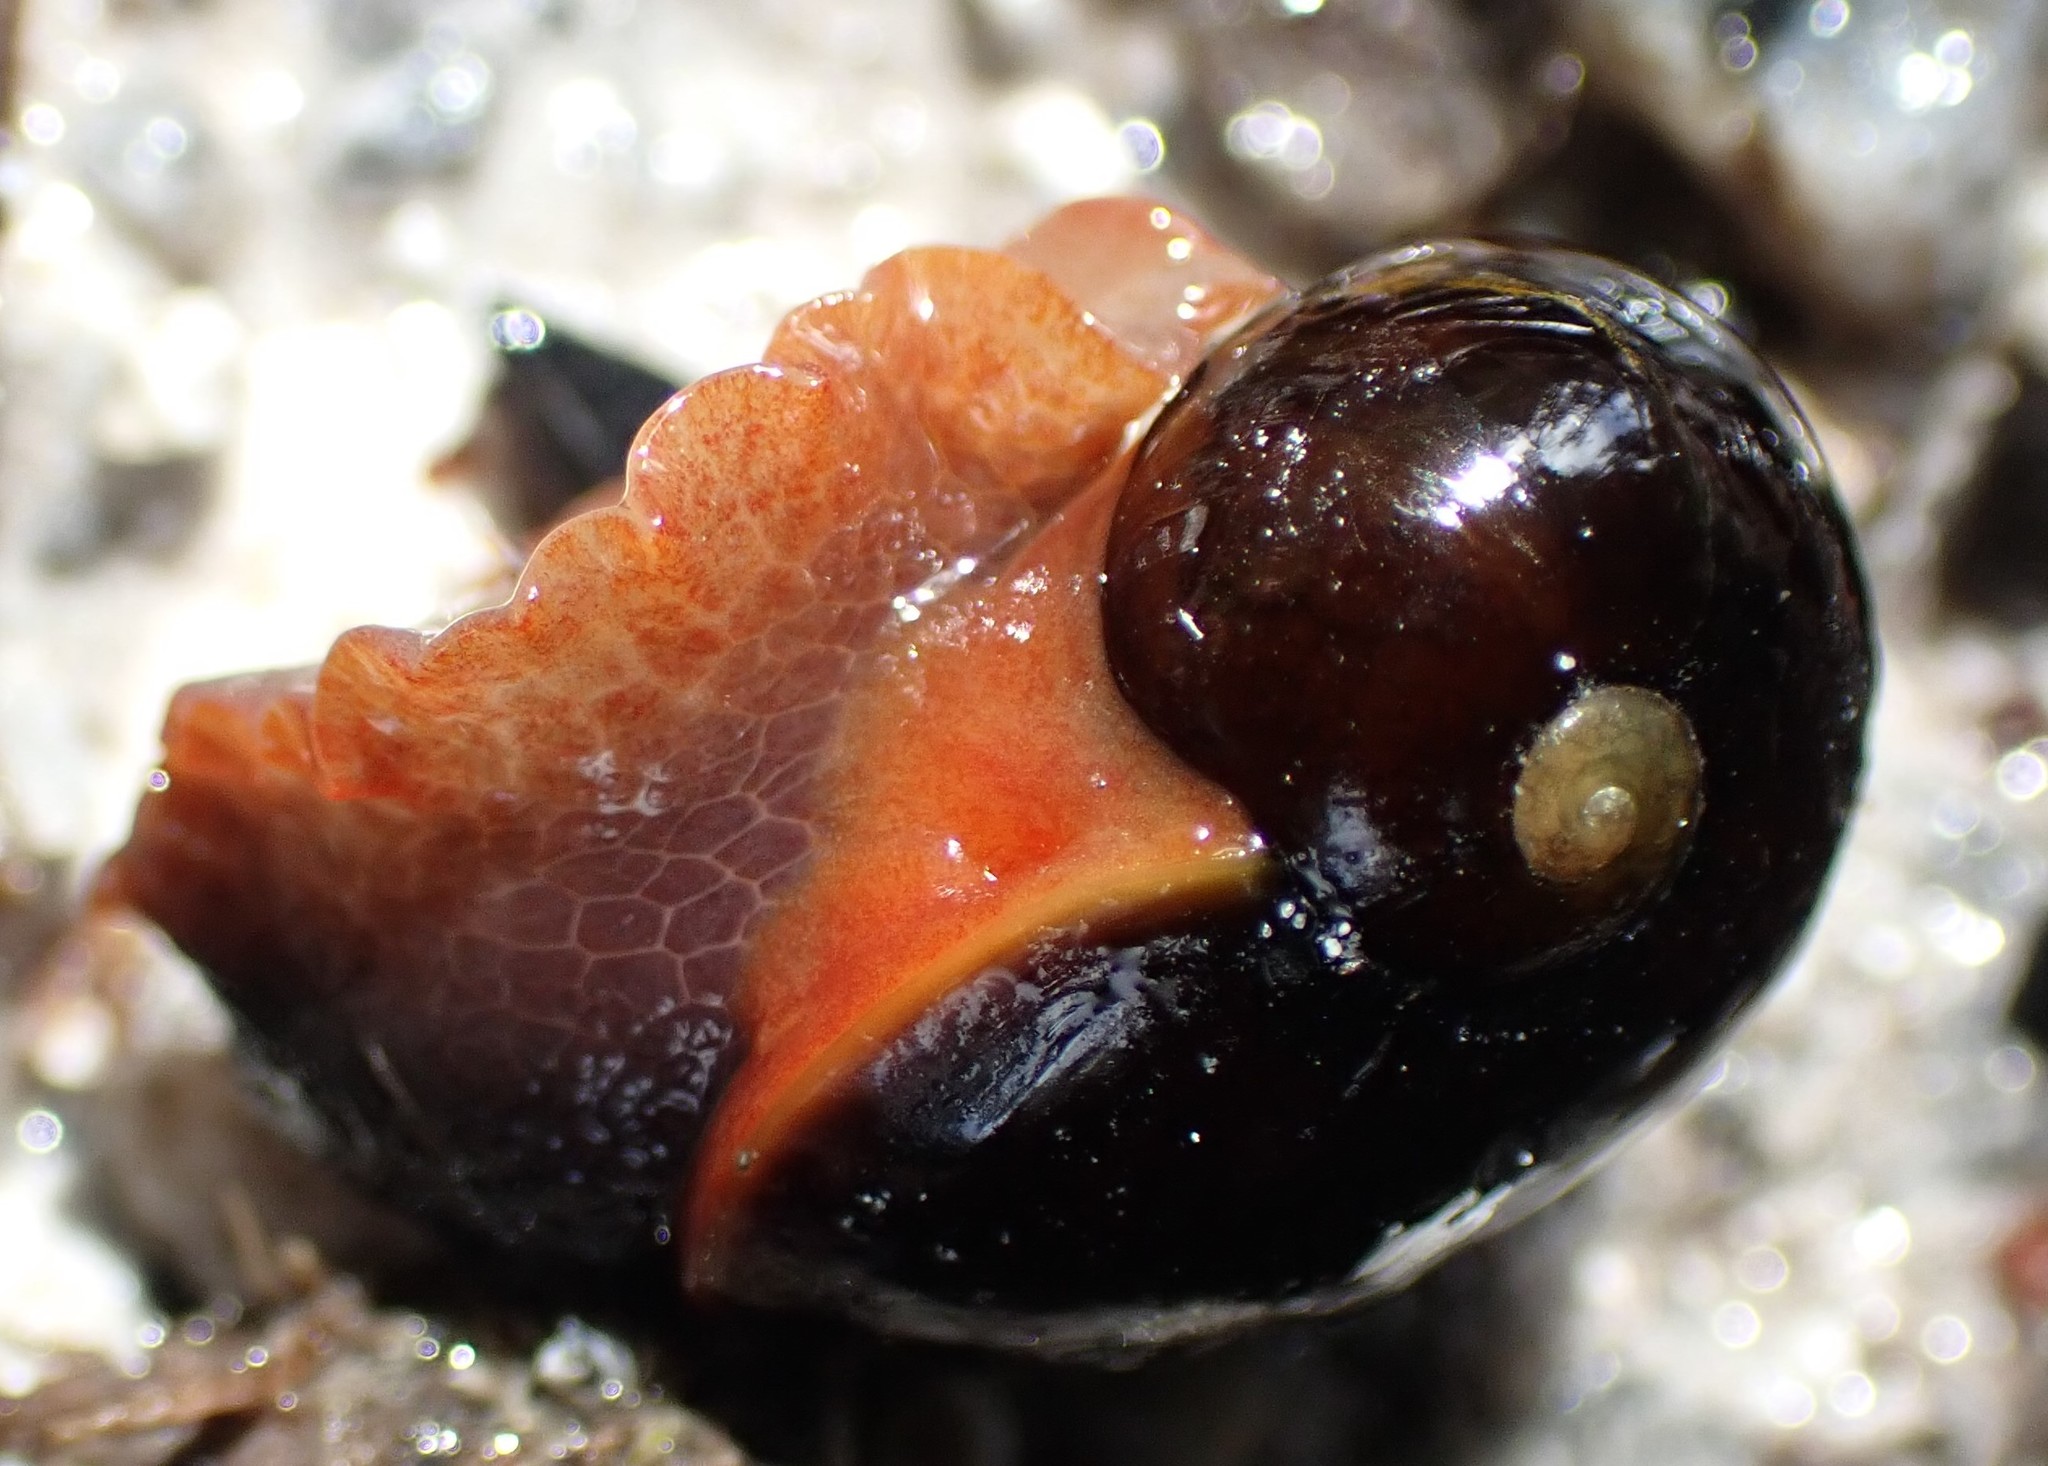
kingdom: Animalia
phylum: Mollusca
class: Gastropoda
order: Stylommatophora
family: Rhytididae
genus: Victaphanta
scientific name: Victaphanta milligani
